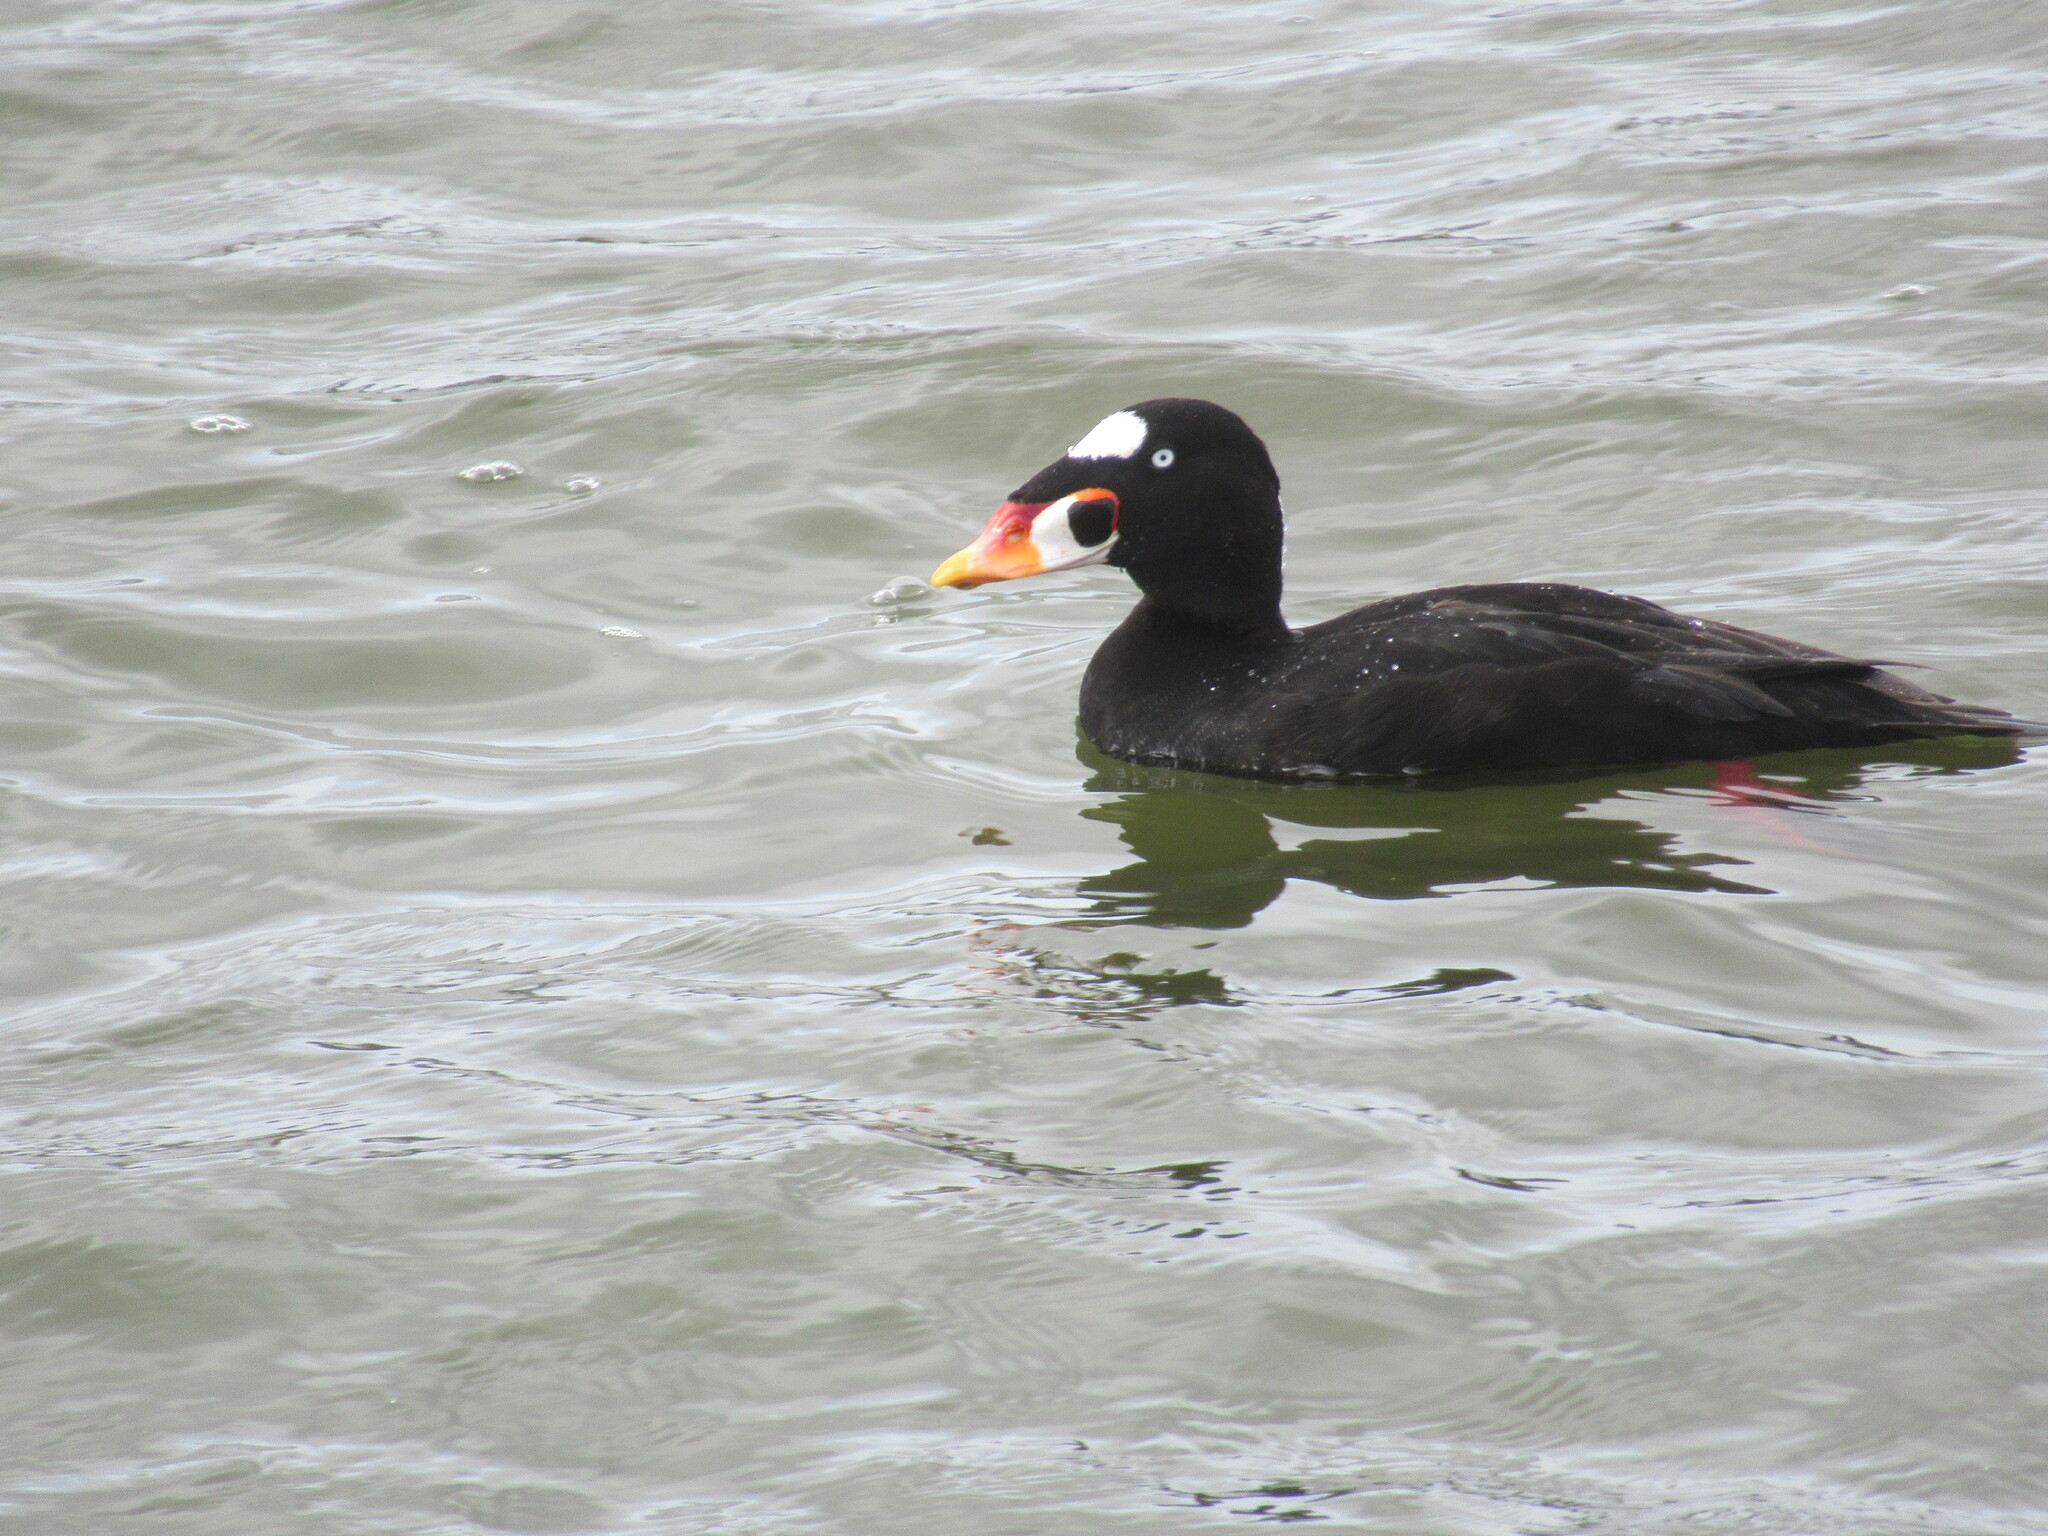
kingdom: Animalia
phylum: Chordata
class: Aves
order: Anseriformes
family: Anatidae
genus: Melanitta
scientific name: Melanitta perspicillata
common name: Surf scoter
